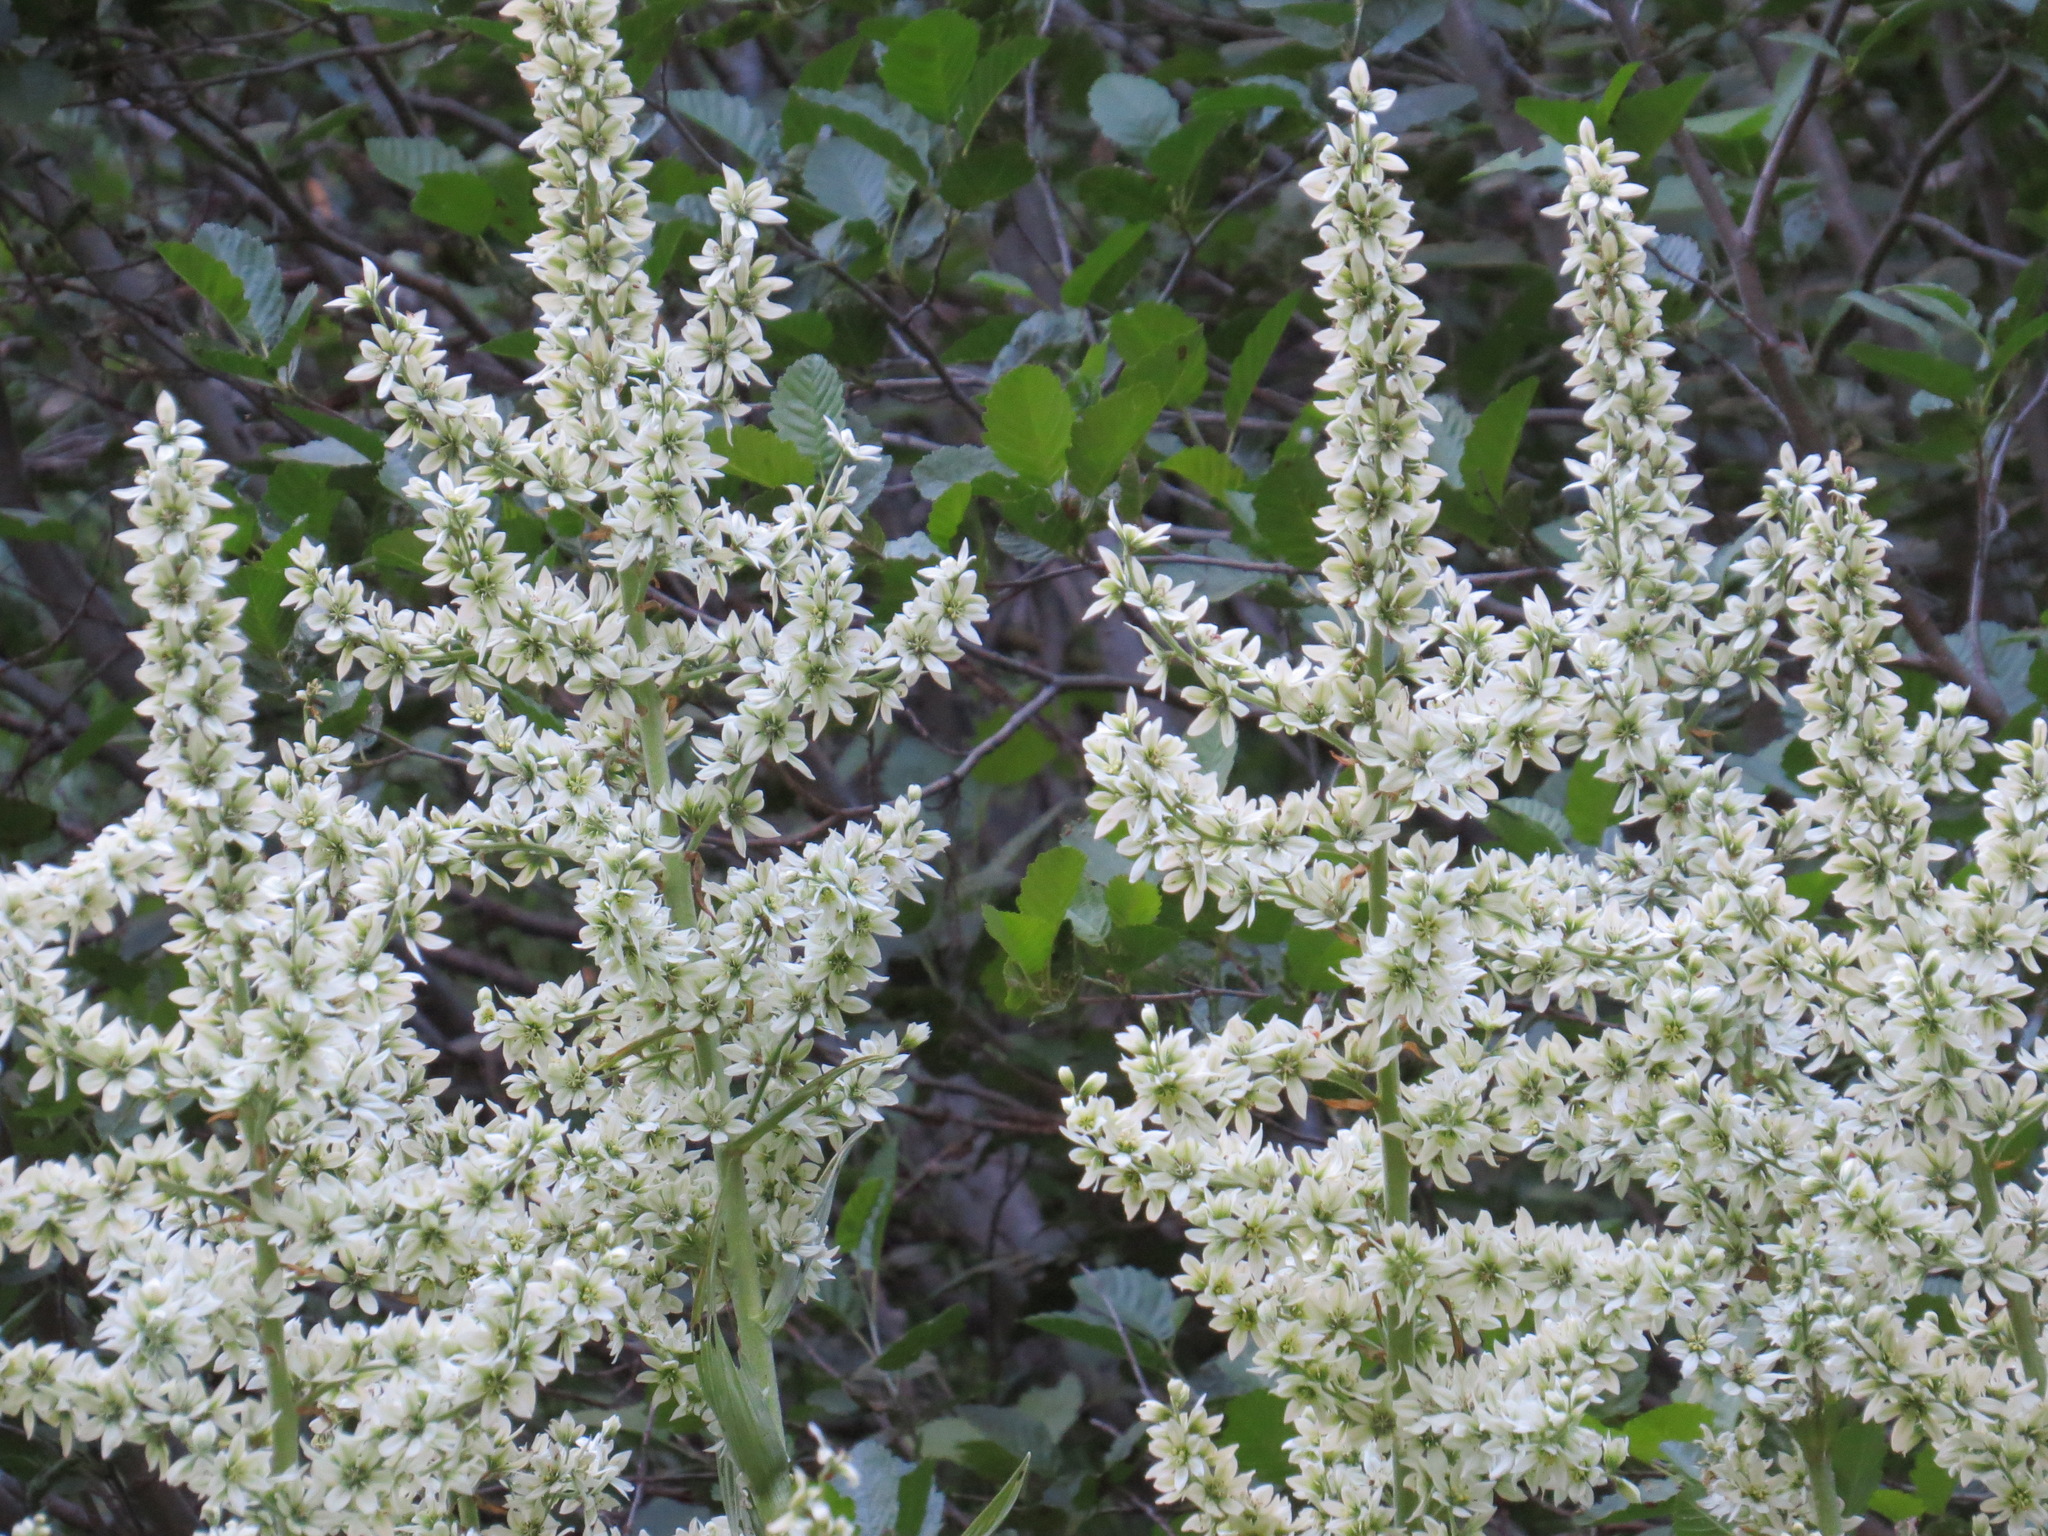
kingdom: Plantae
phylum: Tracheophyta
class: Liliopsida
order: Liliales
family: Melanthiaceae
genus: Veratrum
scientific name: Veratrum californicum
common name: California veratrum
